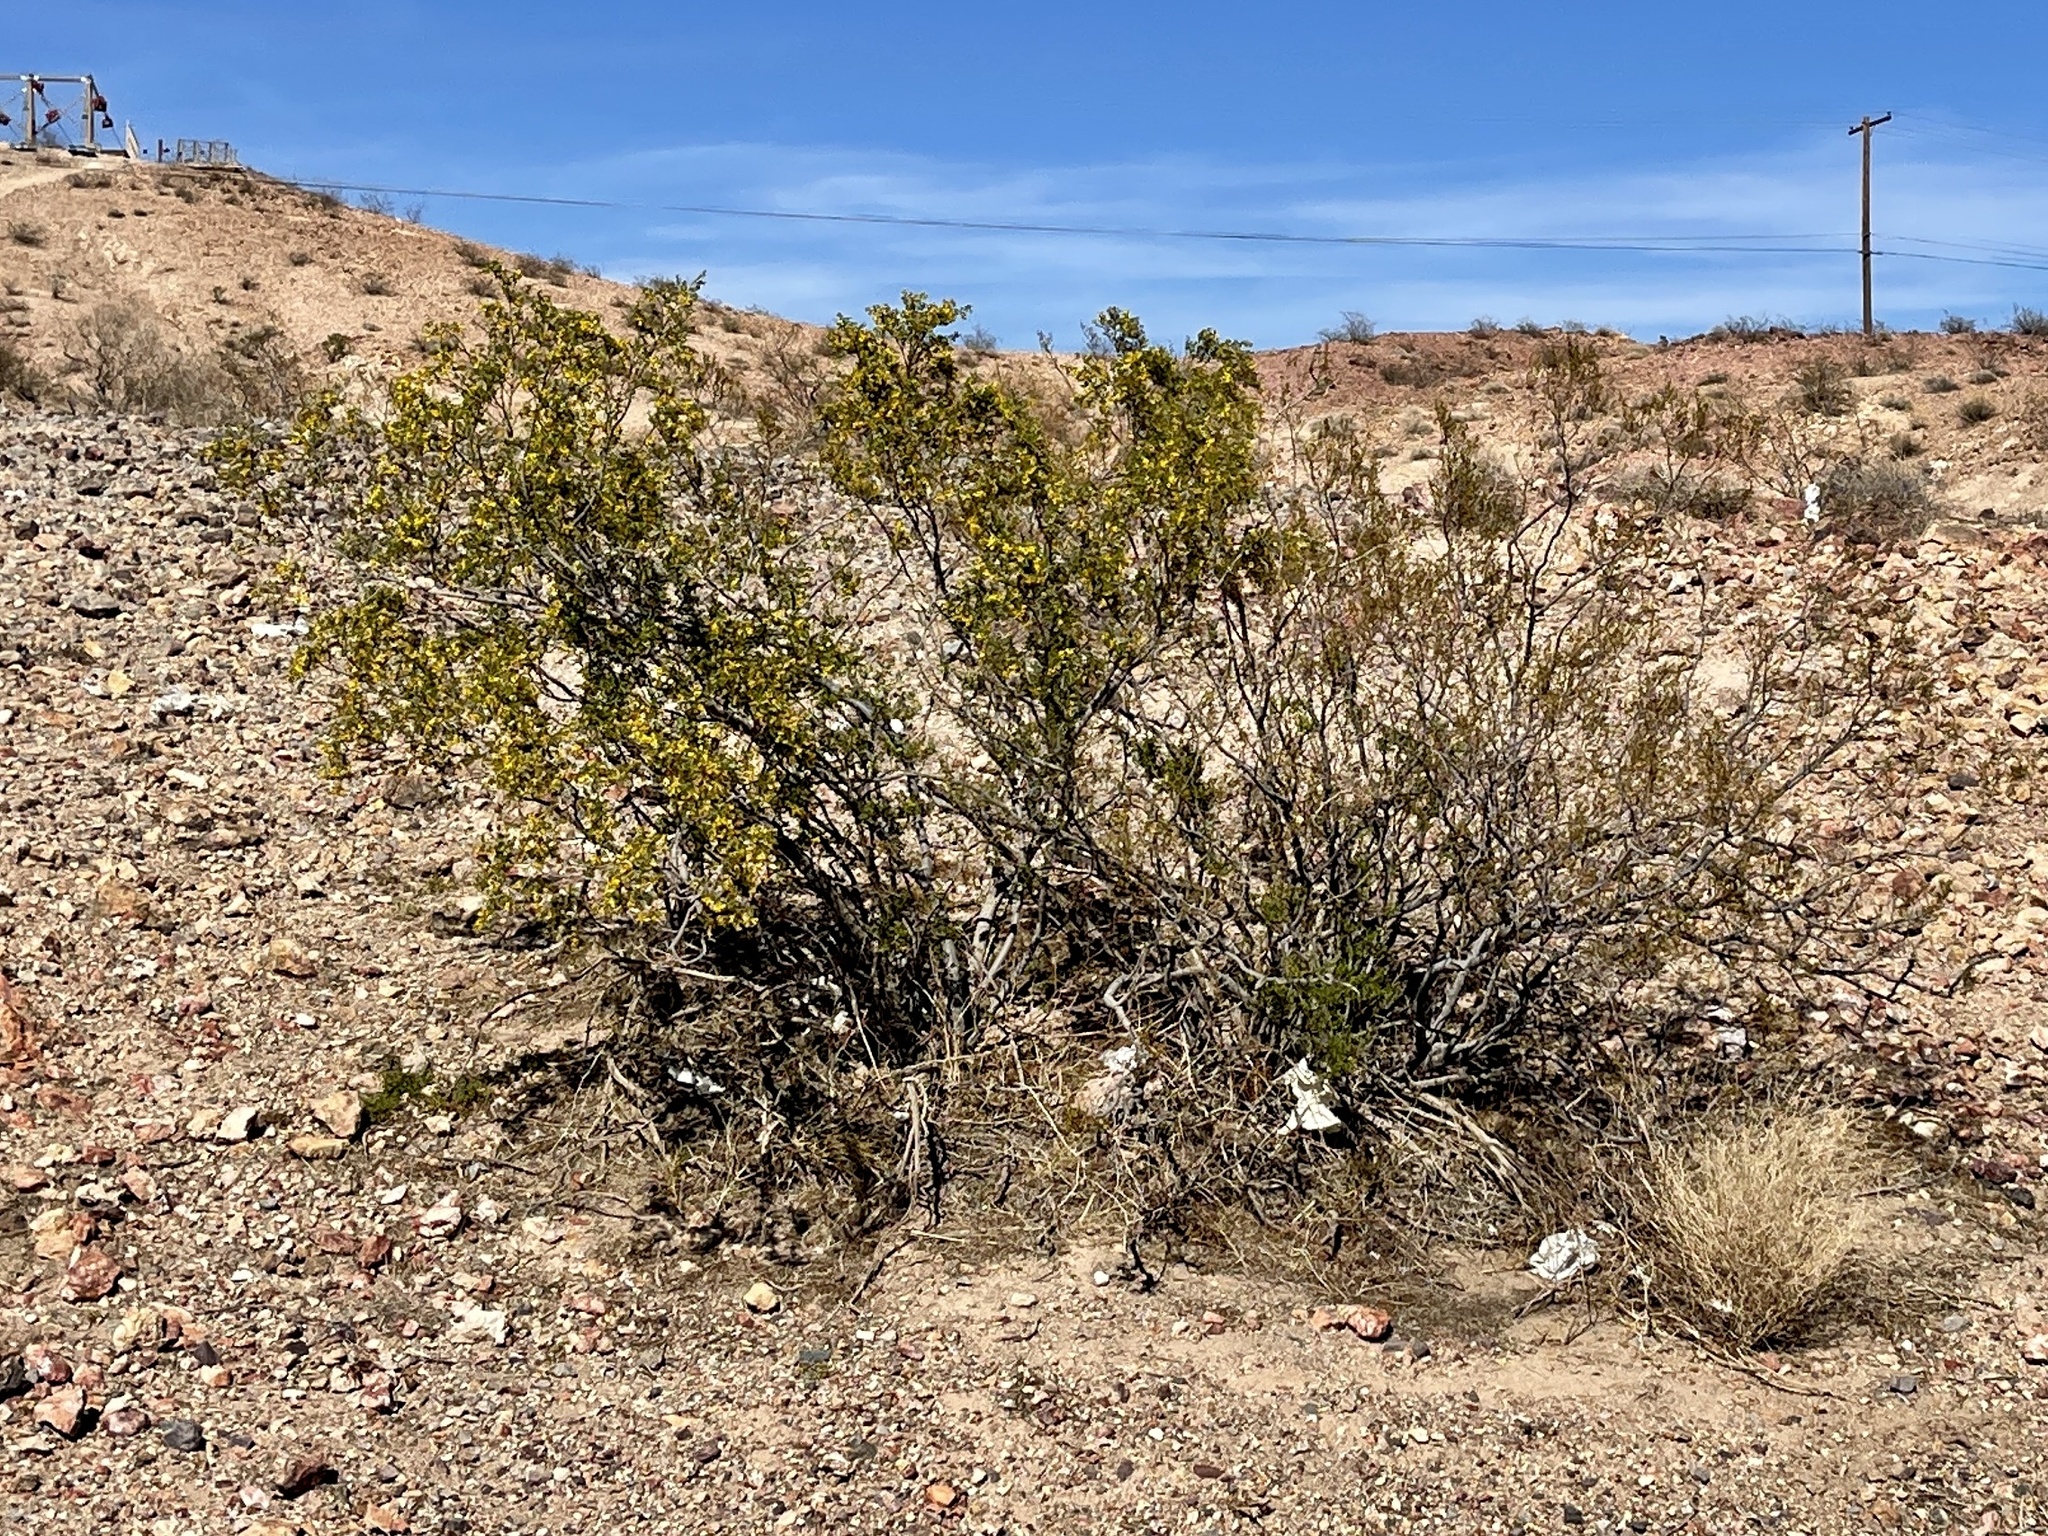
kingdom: Plantae
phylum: Tracheophyta
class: Magnoliopsida
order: Zygophyllales
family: Zygophyllaceae
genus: Larrea
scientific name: Larrea tridentata
